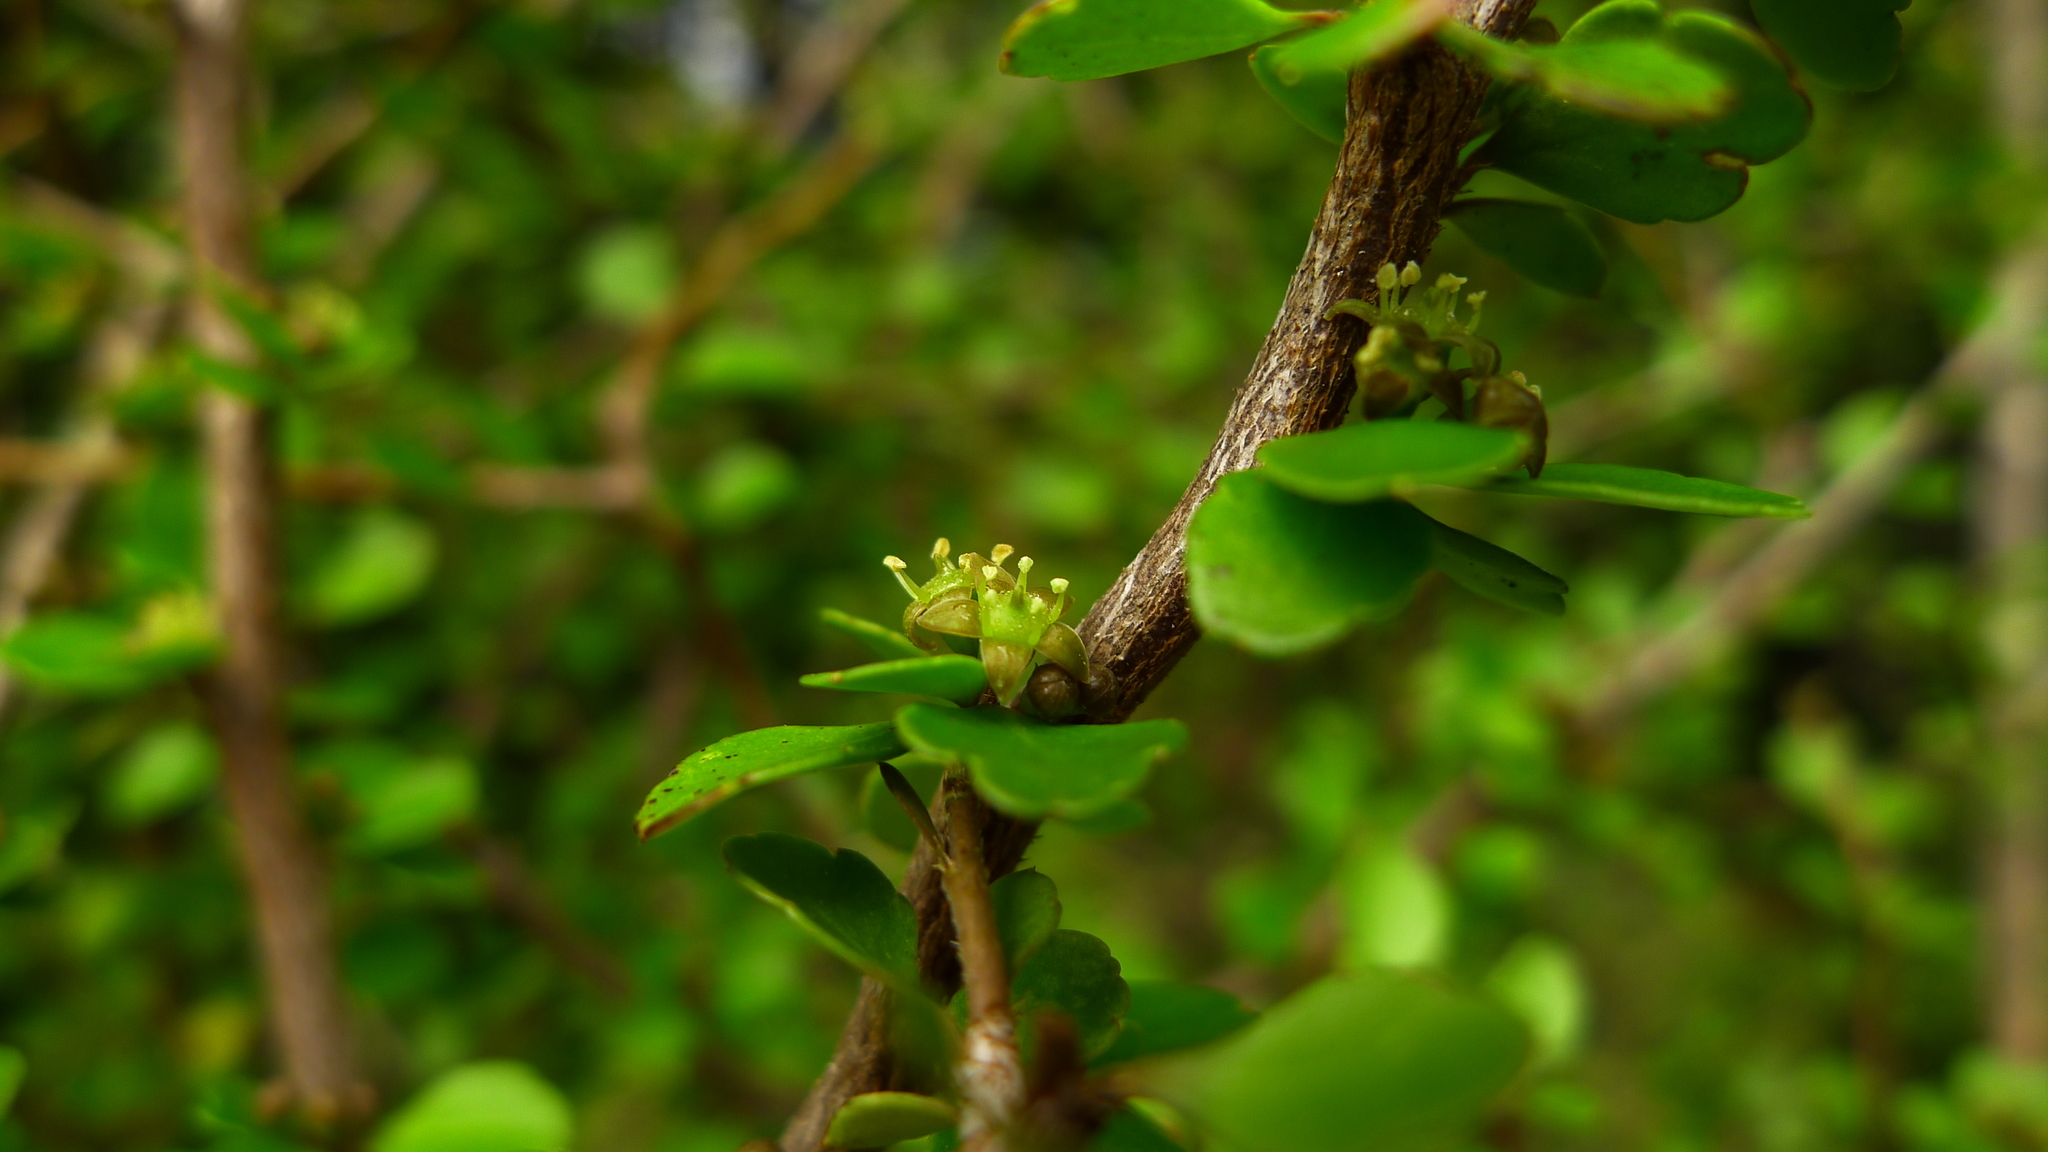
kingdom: Plantae
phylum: Tracheophyta
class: Magnoliopsida
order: Apiales
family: Araliaceae
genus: Raukaua
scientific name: Raukaua anomalus
